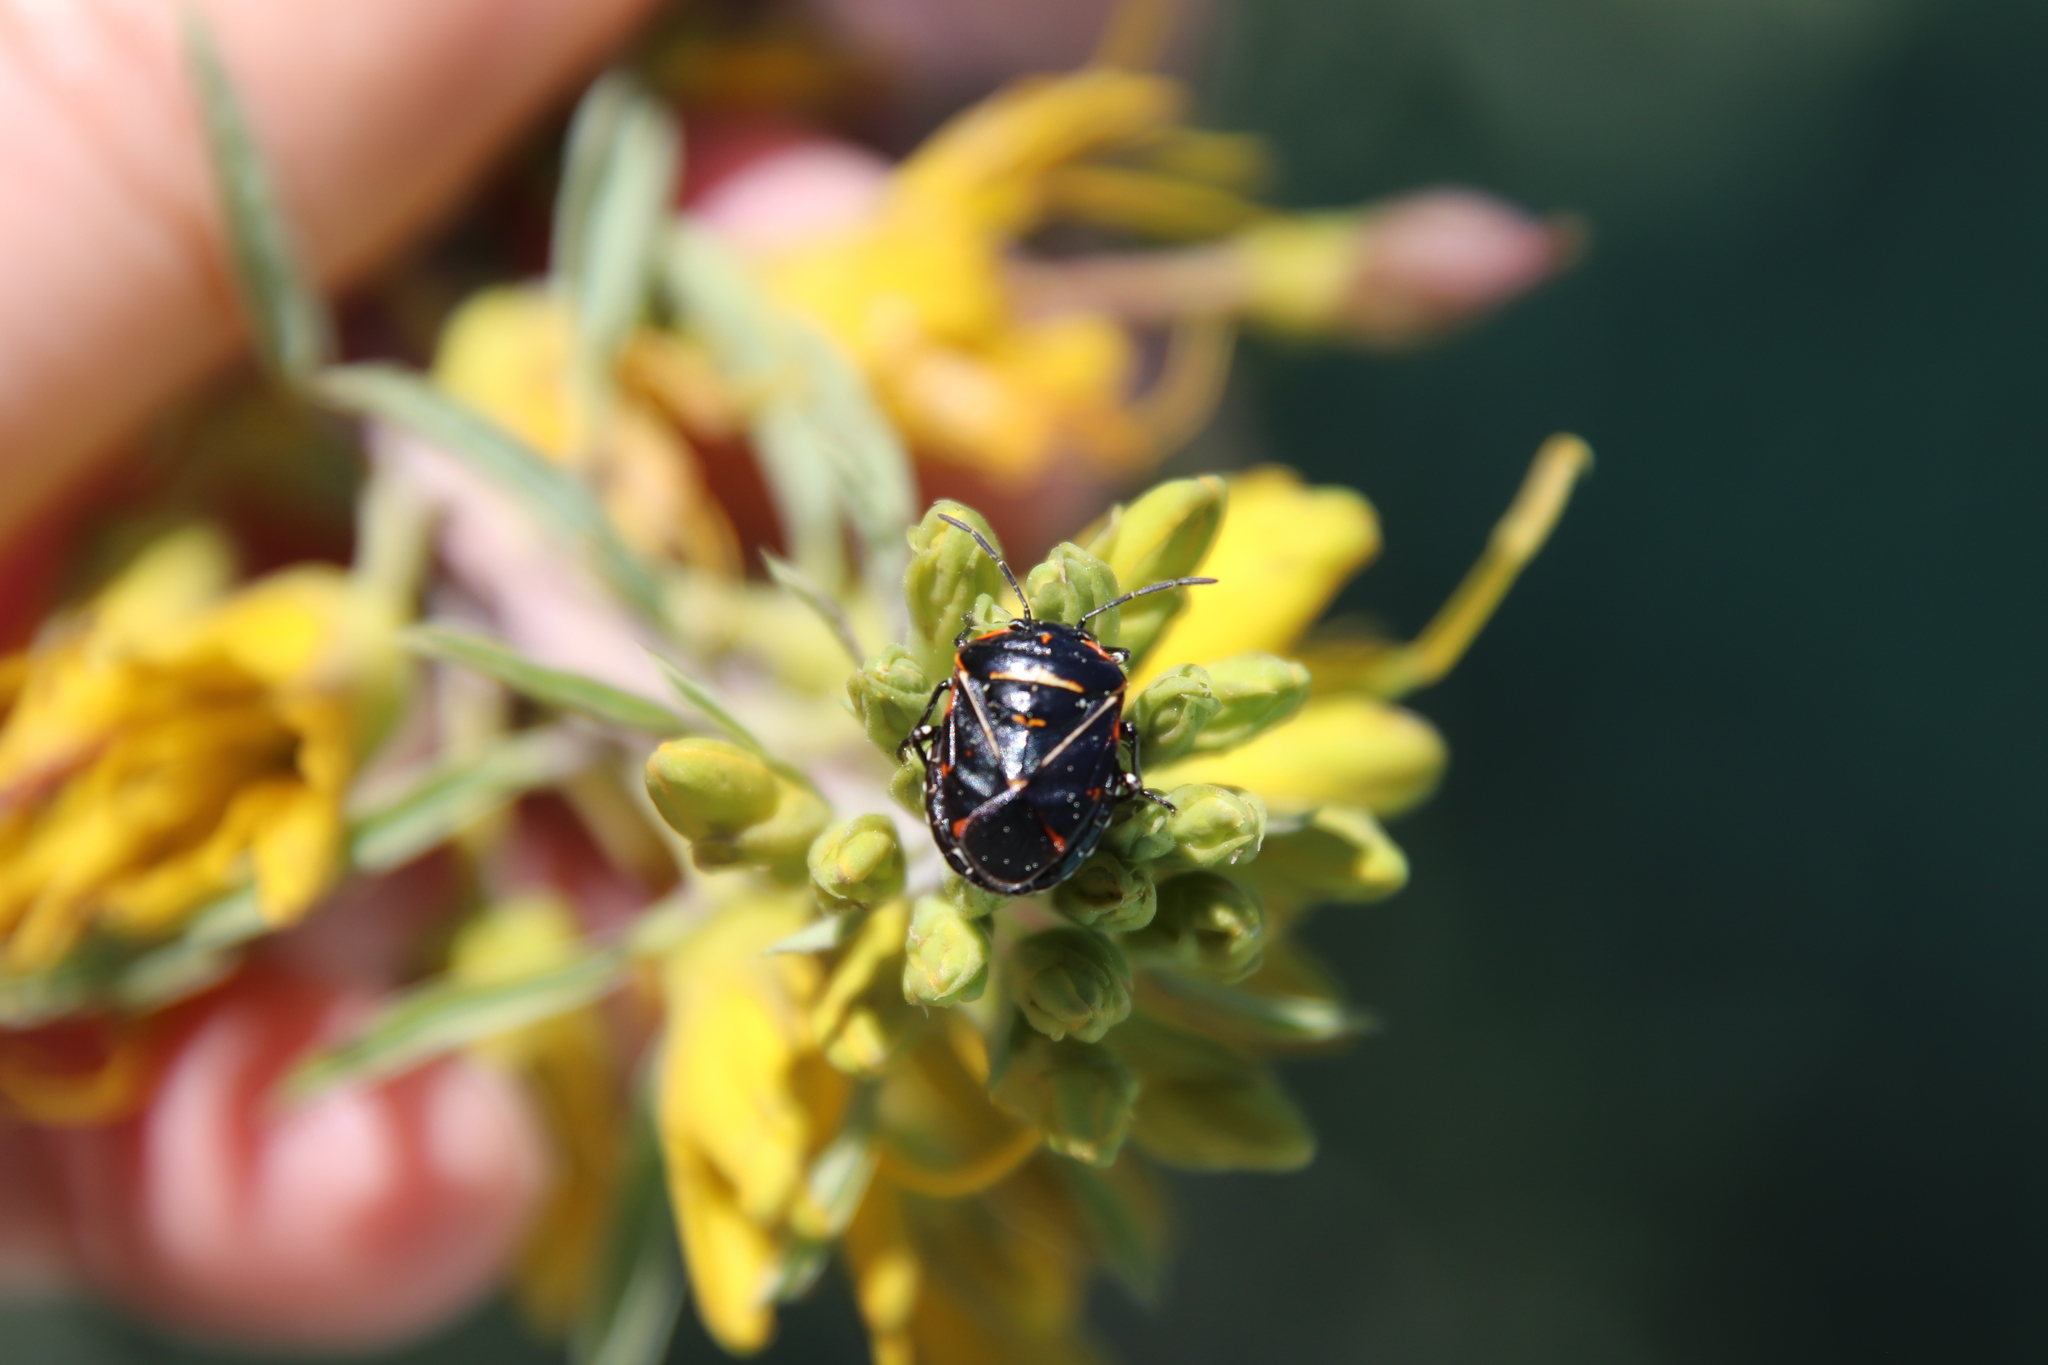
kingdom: Animalia
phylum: Arthropoda
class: Insecta
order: Hemiptera
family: Pentatomidae
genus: Murgantia
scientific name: Murgantia histrionica
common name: Harlequin bug
